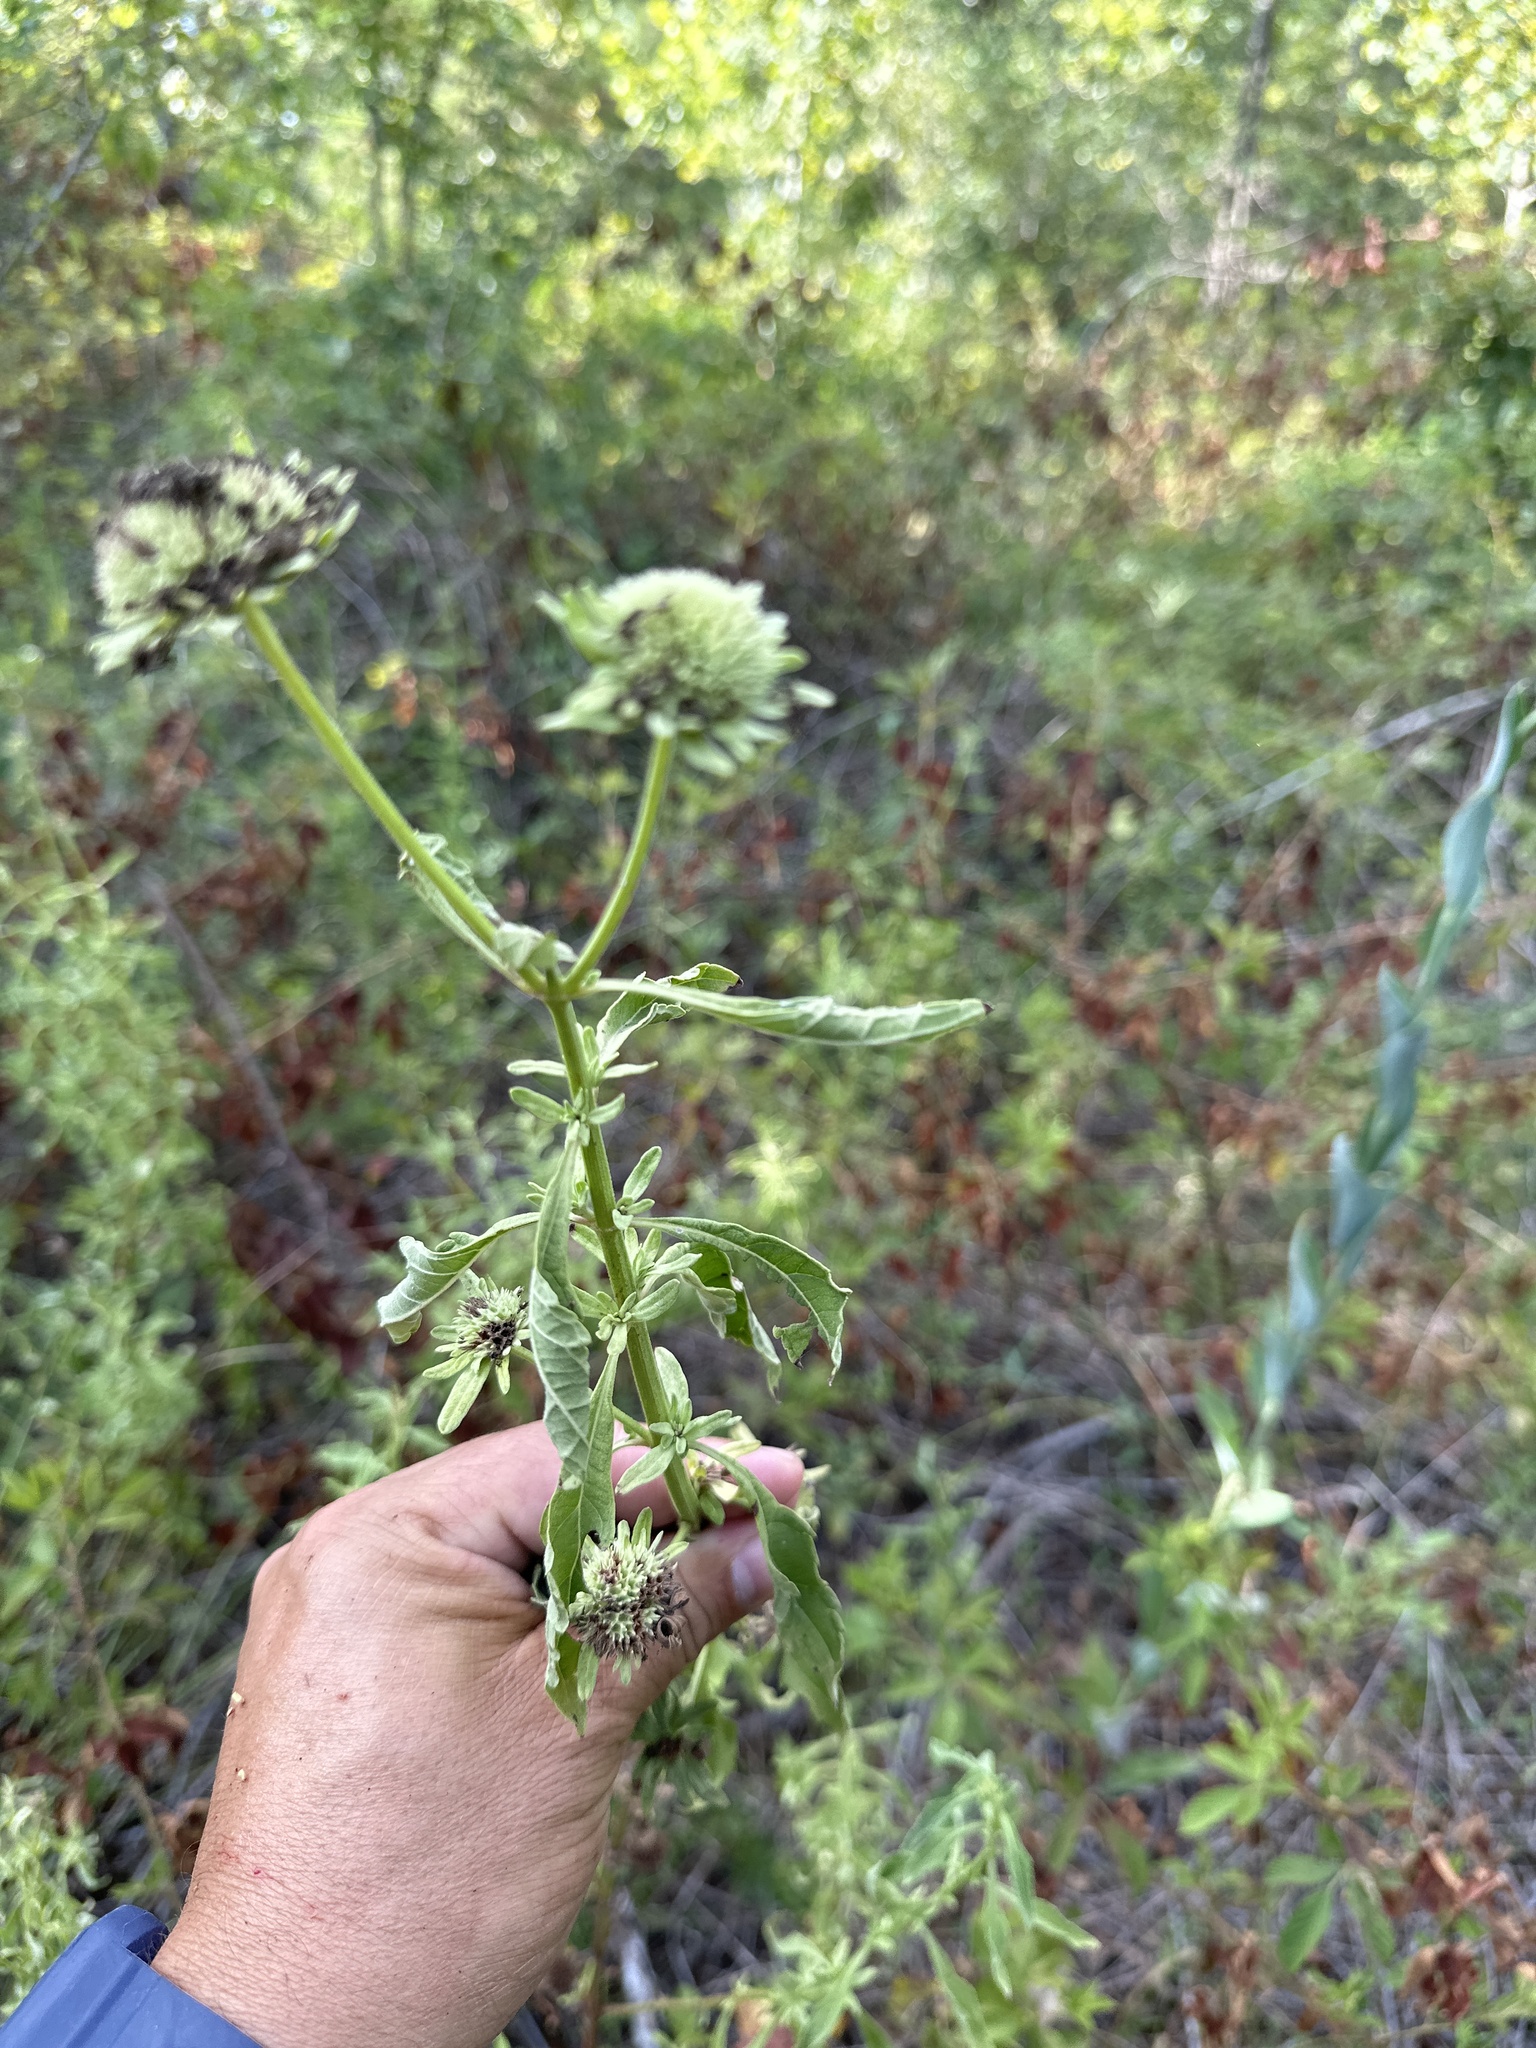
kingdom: Plantae
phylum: Tracheophyta
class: Magnoliopsida
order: Lamiales
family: Lamiaceae
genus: Hyptis
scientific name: Hyptis alata
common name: Cluster bush-mint
